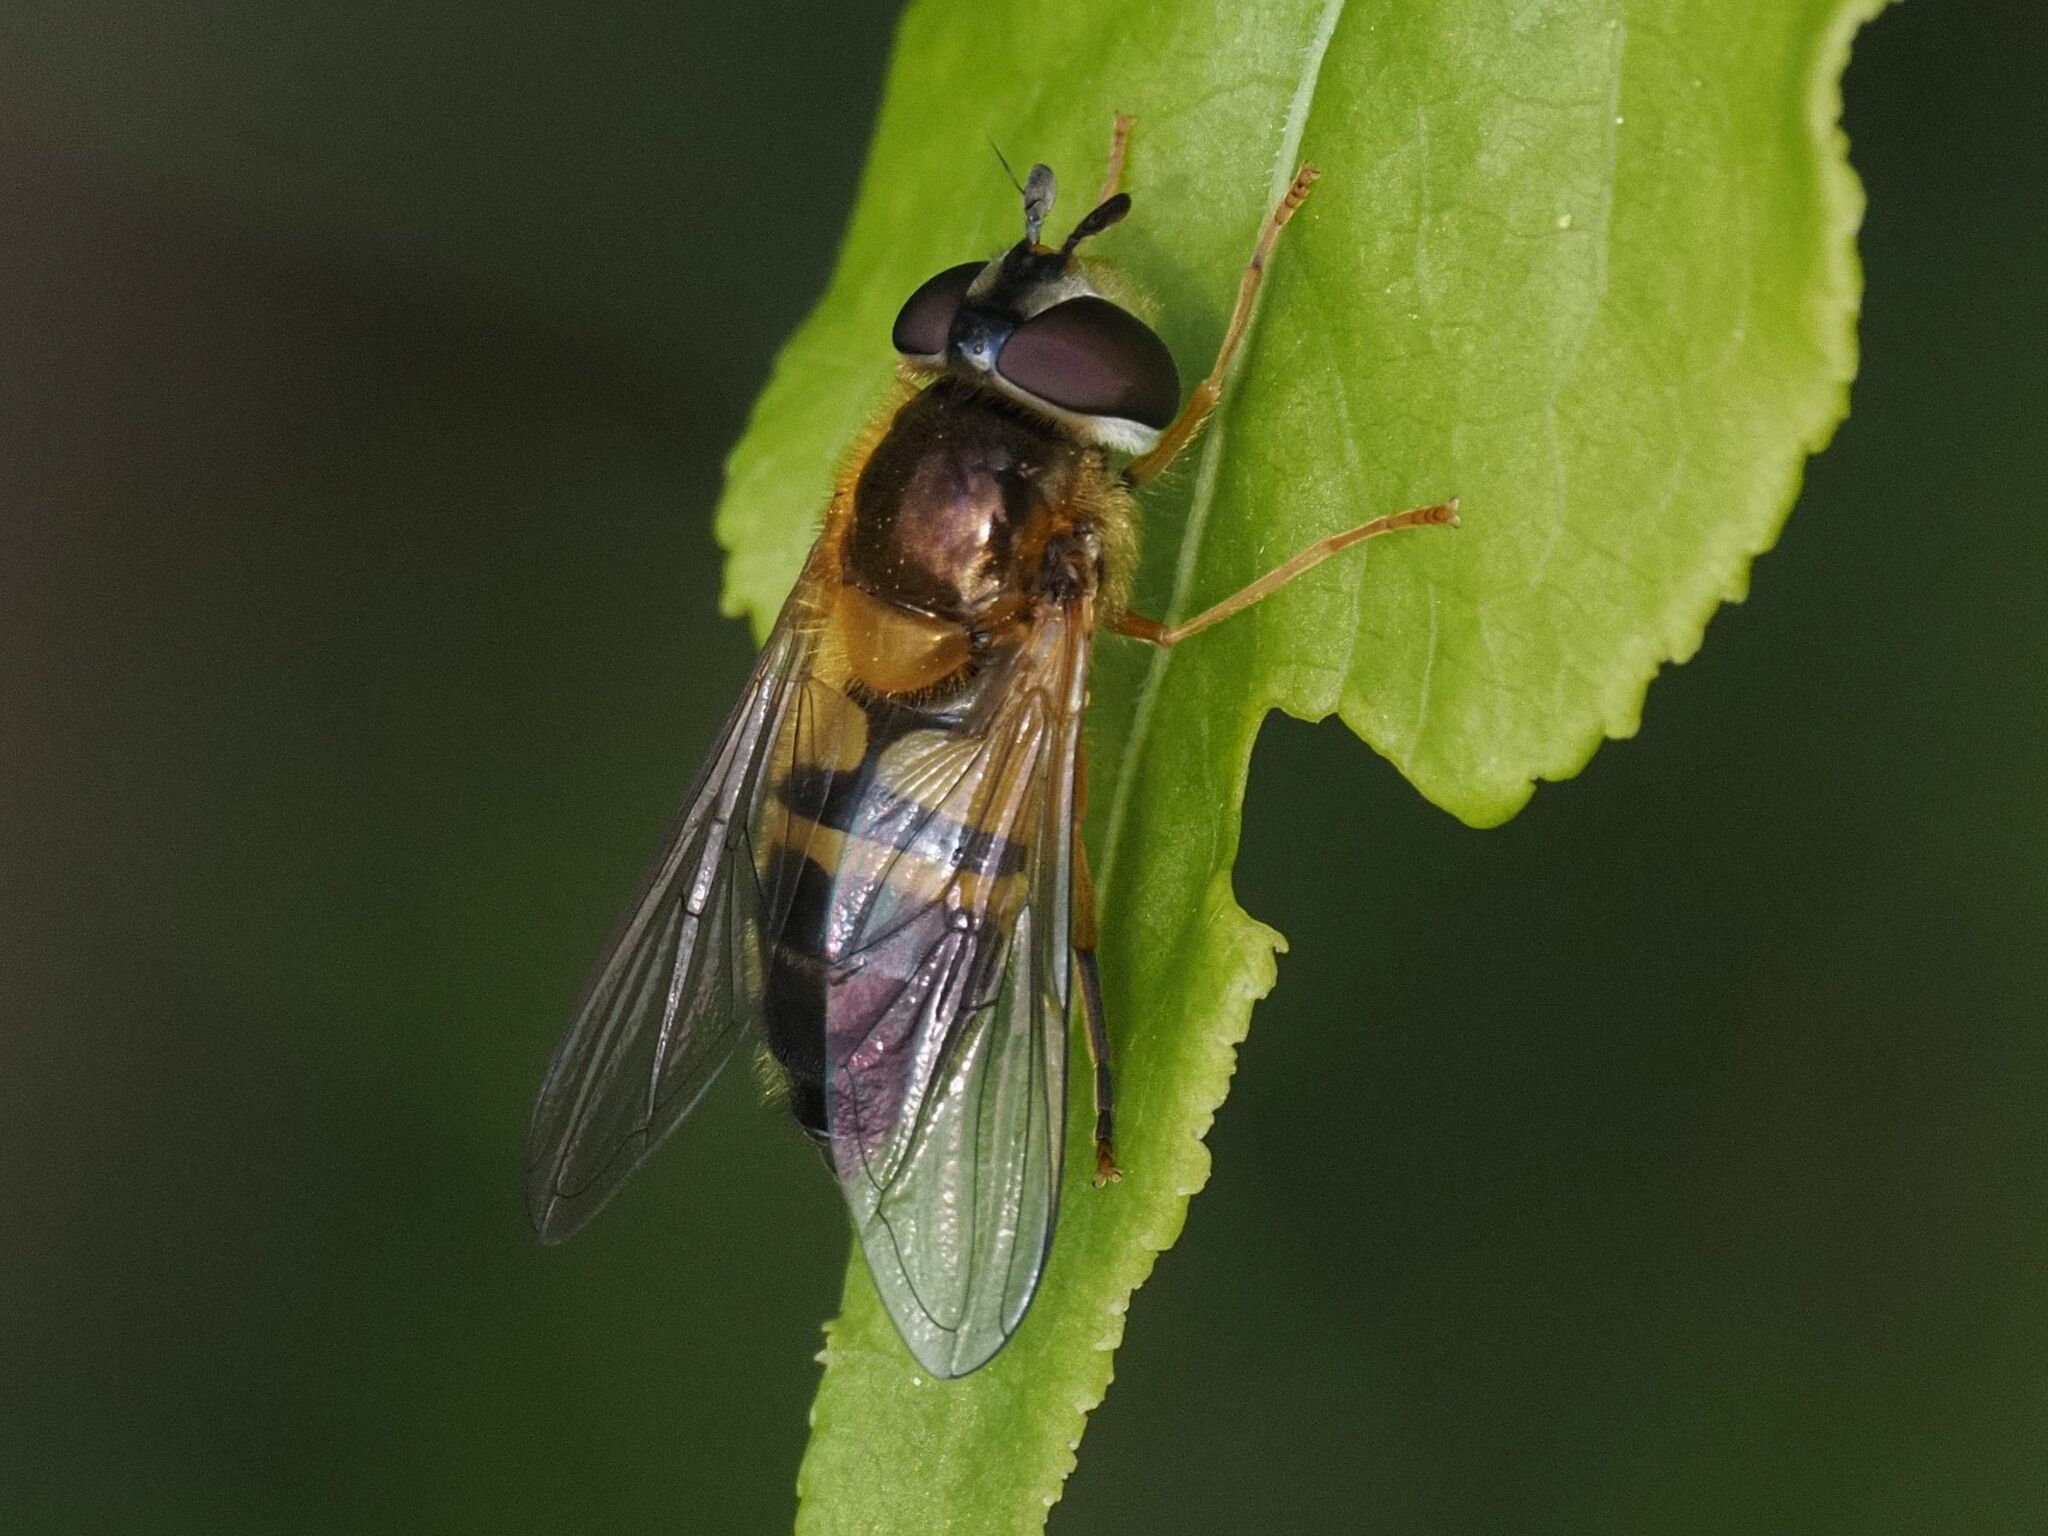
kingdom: Animalia
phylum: Arthropoda
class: Insecta
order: Diptera
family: Syrphidae
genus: Epistrophe
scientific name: Epistrophe eligans
